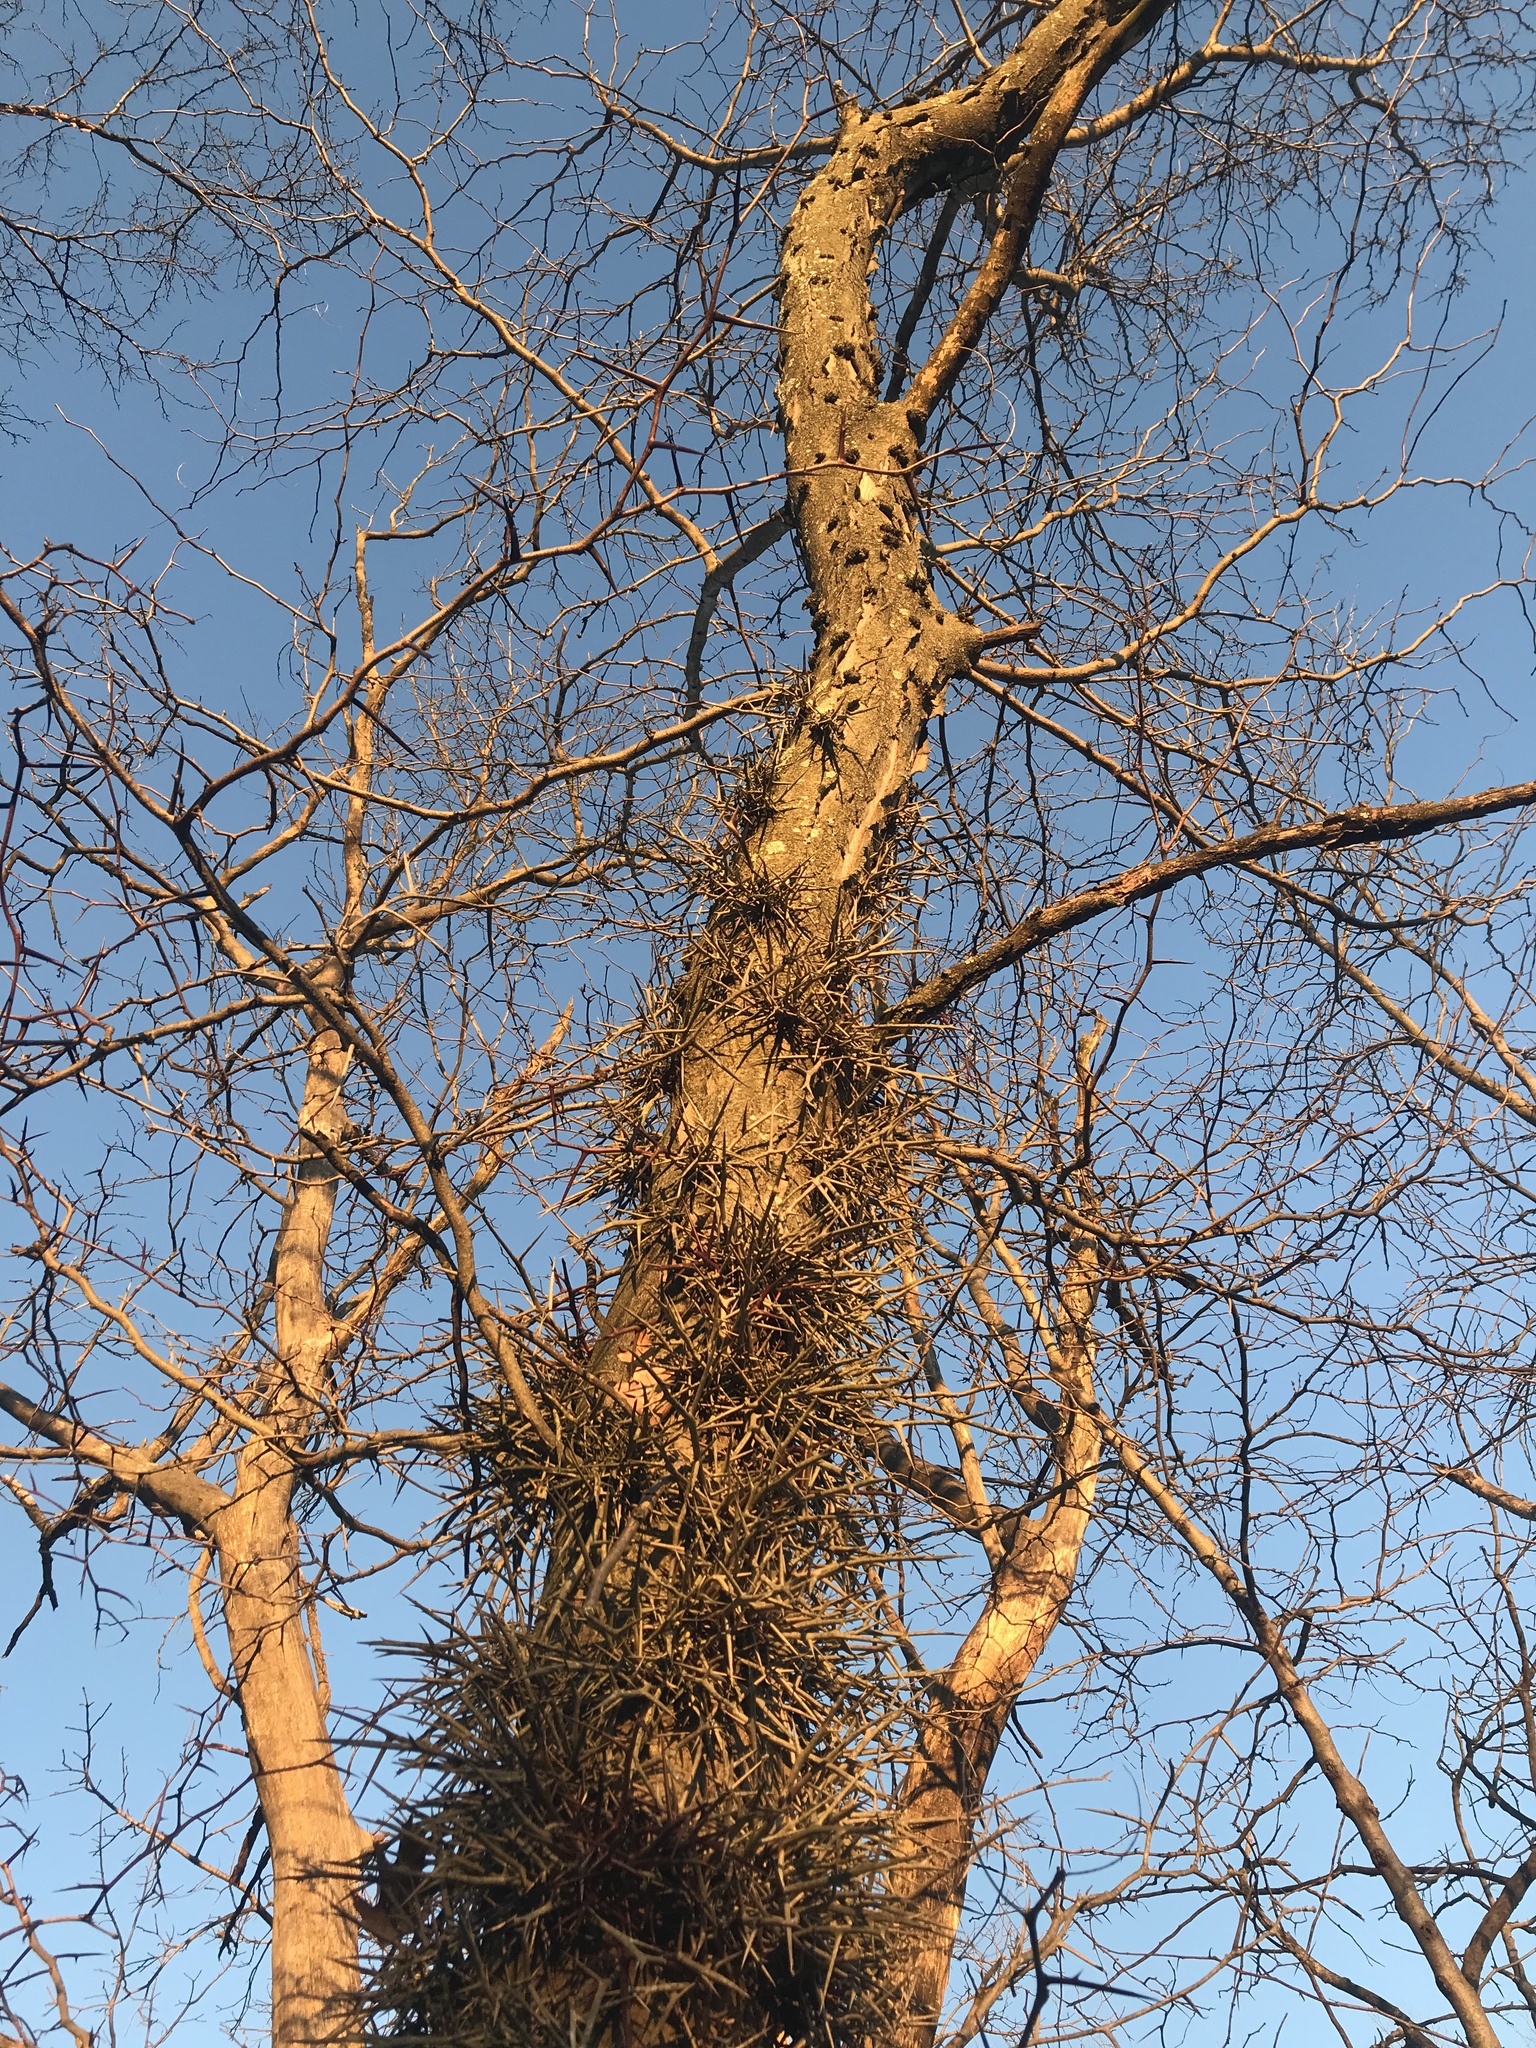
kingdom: Plantae
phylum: Tracheophyta
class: Magnoliopsida
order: Fabales
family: Fabaceae
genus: Gleditsia
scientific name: Gleditsia triacanthos
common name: Common honeylocust
